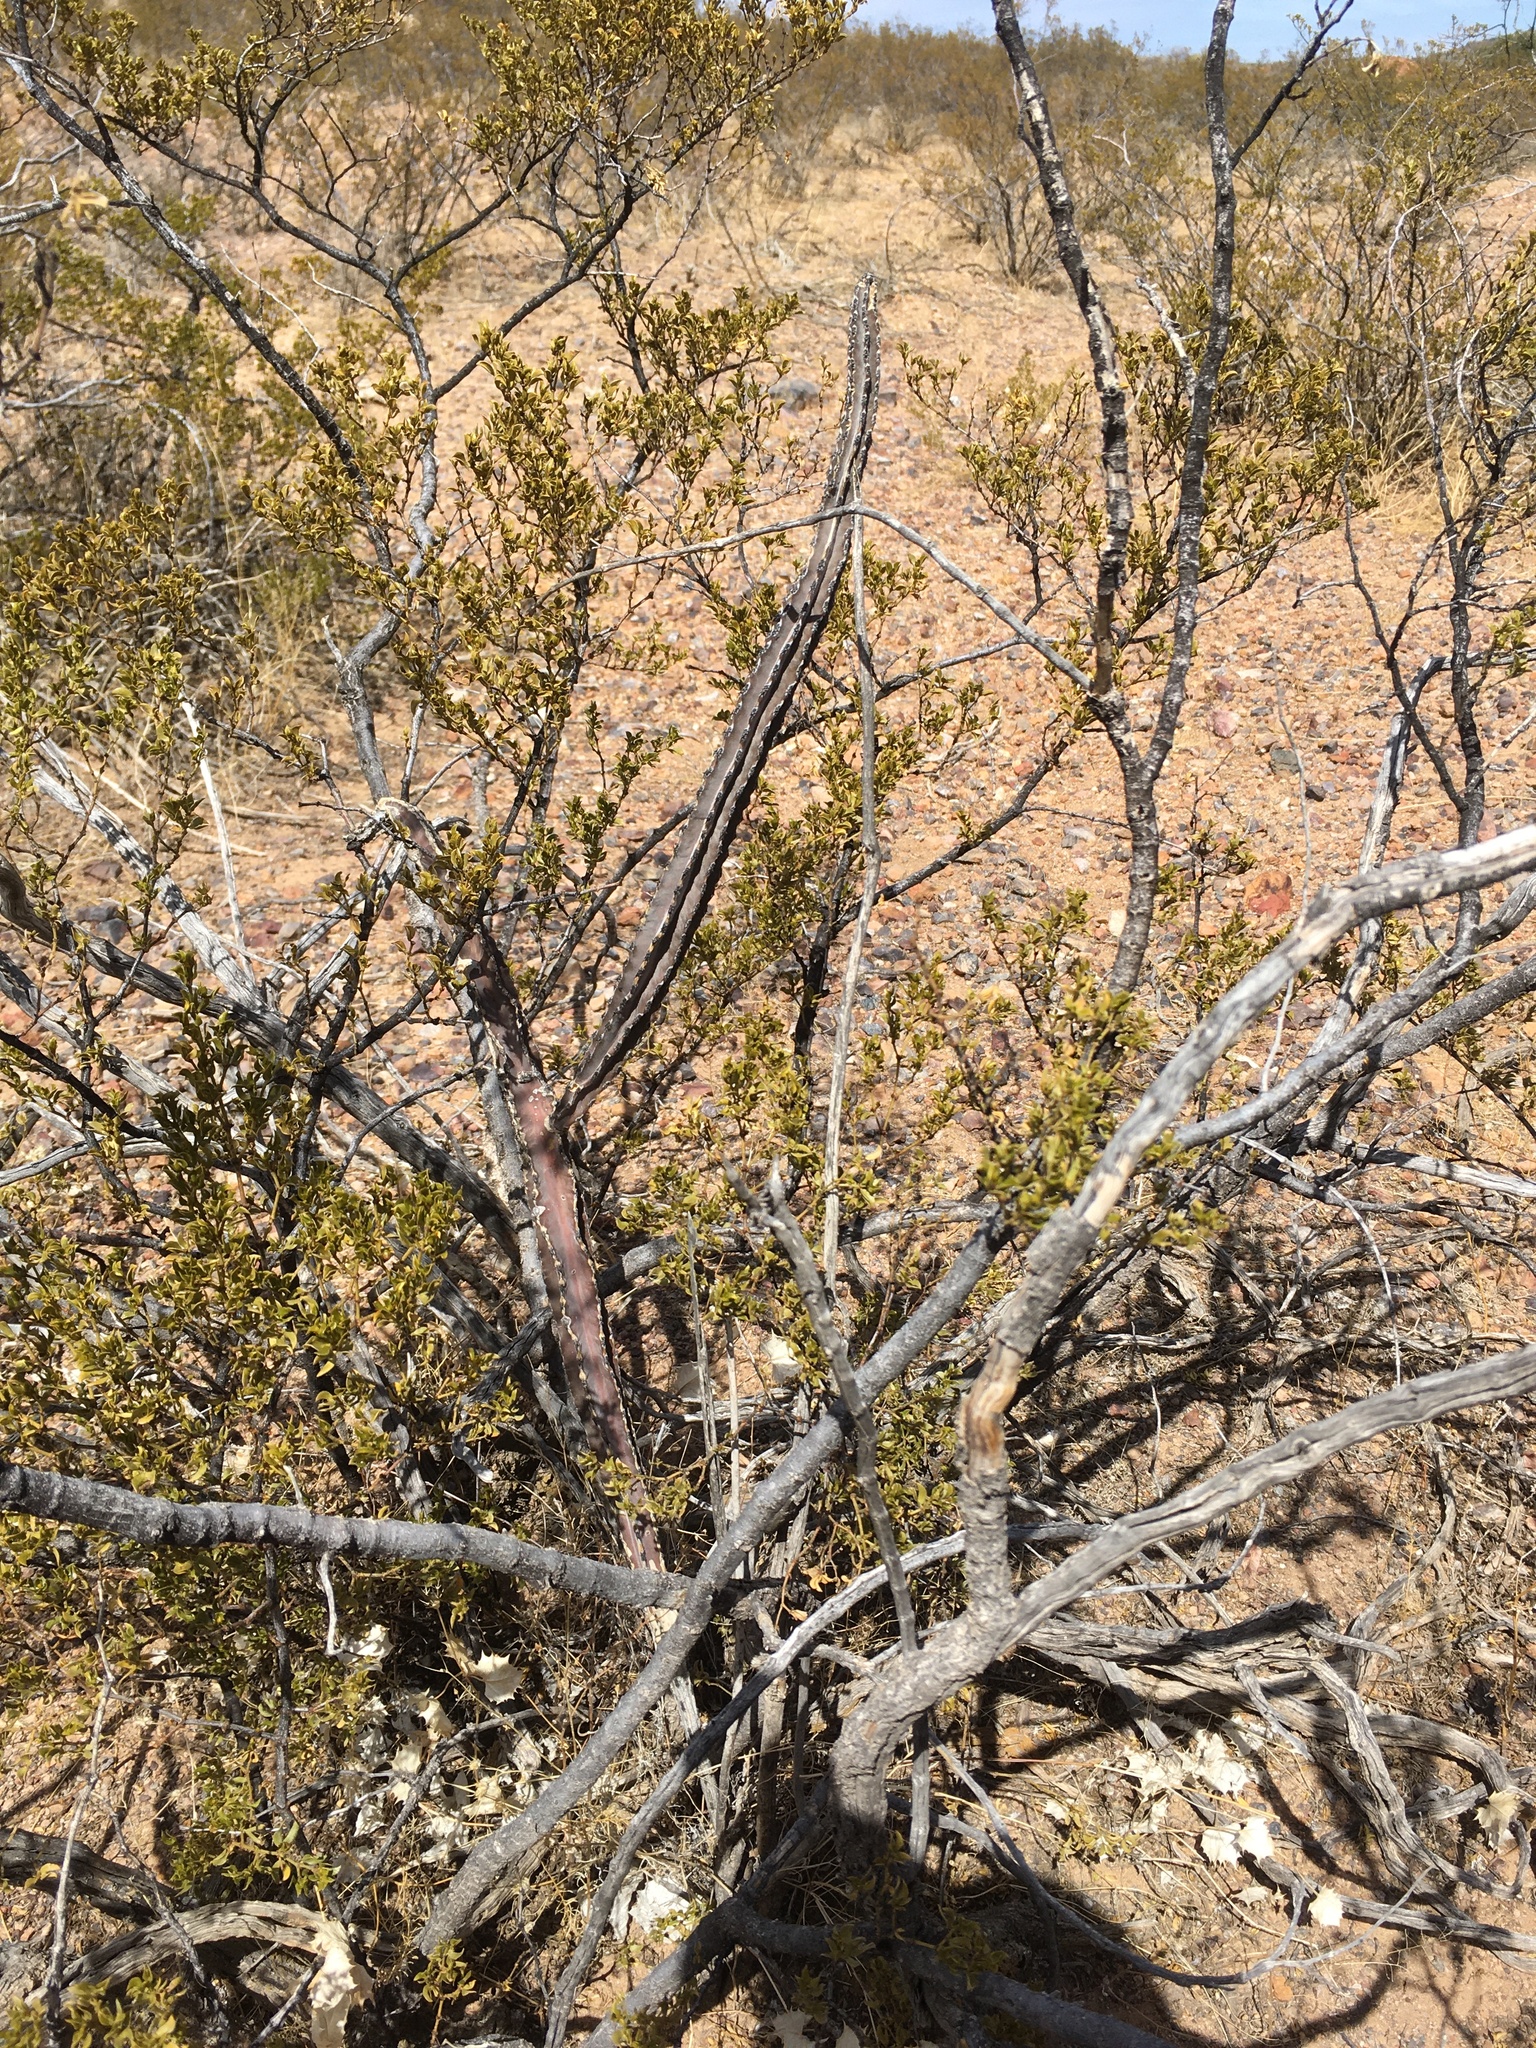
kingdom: Plantae
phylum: Tracheophyta
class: Magnoliopsida
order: Caryophyllales
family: Cactaceae
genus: Peniocereus
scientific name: Peniocereus greggii
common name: Desert night-blooming cereus
